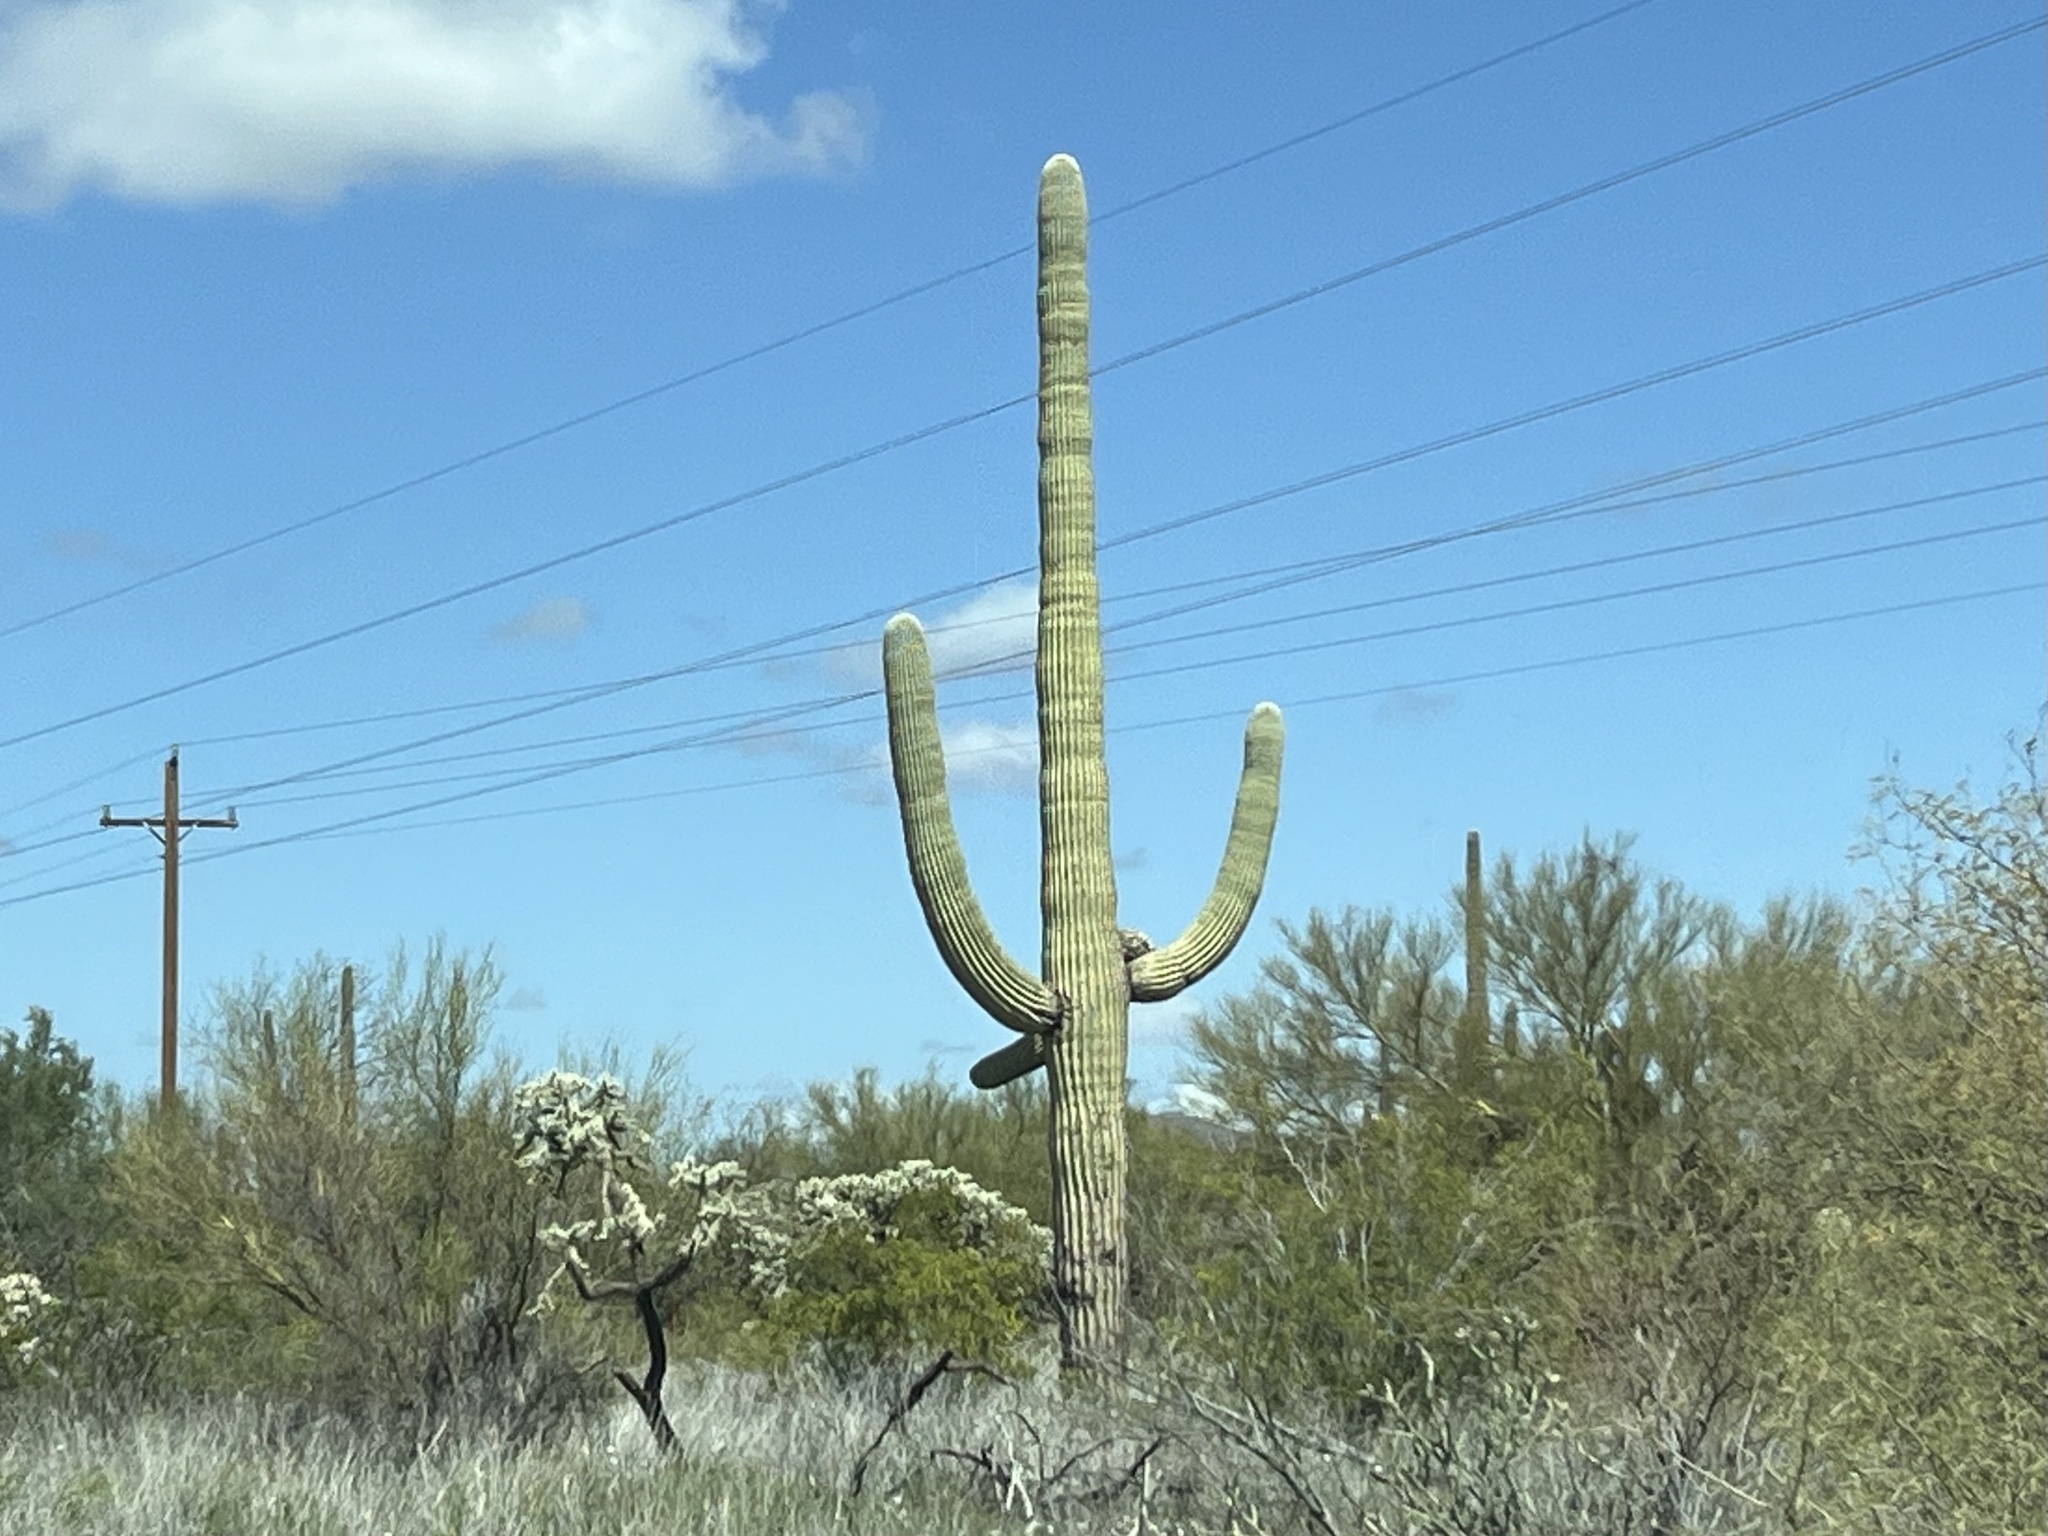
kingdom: Plantae
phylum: Tracheophyta
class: Magnoliopsida
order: Caryophyllales
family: Cactaceae
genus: Carnegiea
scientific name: Carnegiea gigantea
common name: Saguaro
